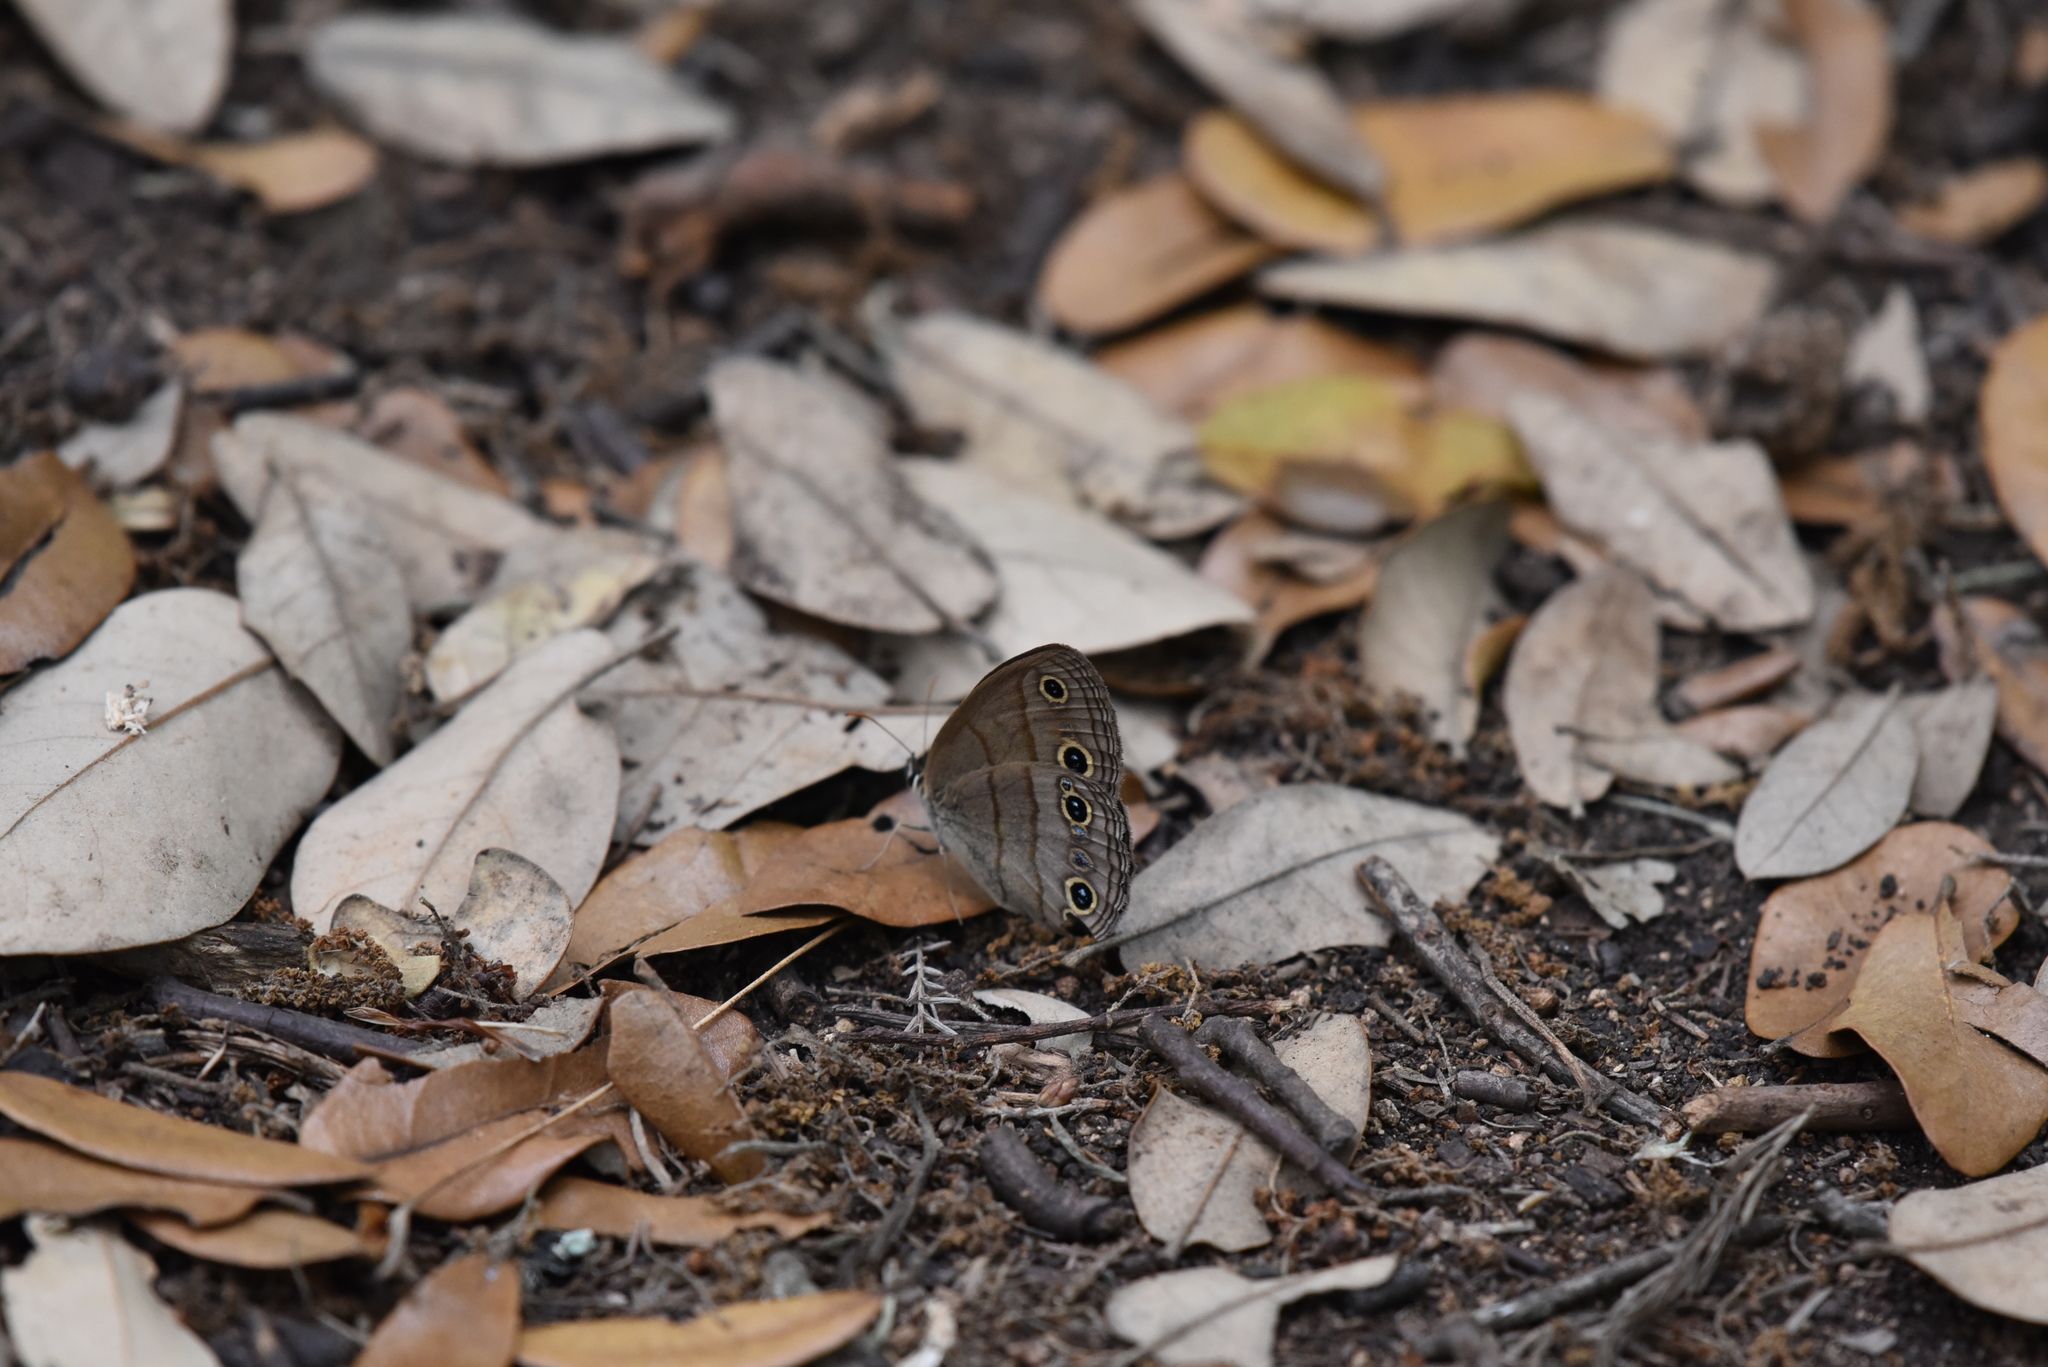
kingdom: Animalia
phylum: Arthropoda
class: Insecta
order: Lepidoptera
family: Nymphalidae
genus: Euptychia
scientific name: Euptychia cymela
